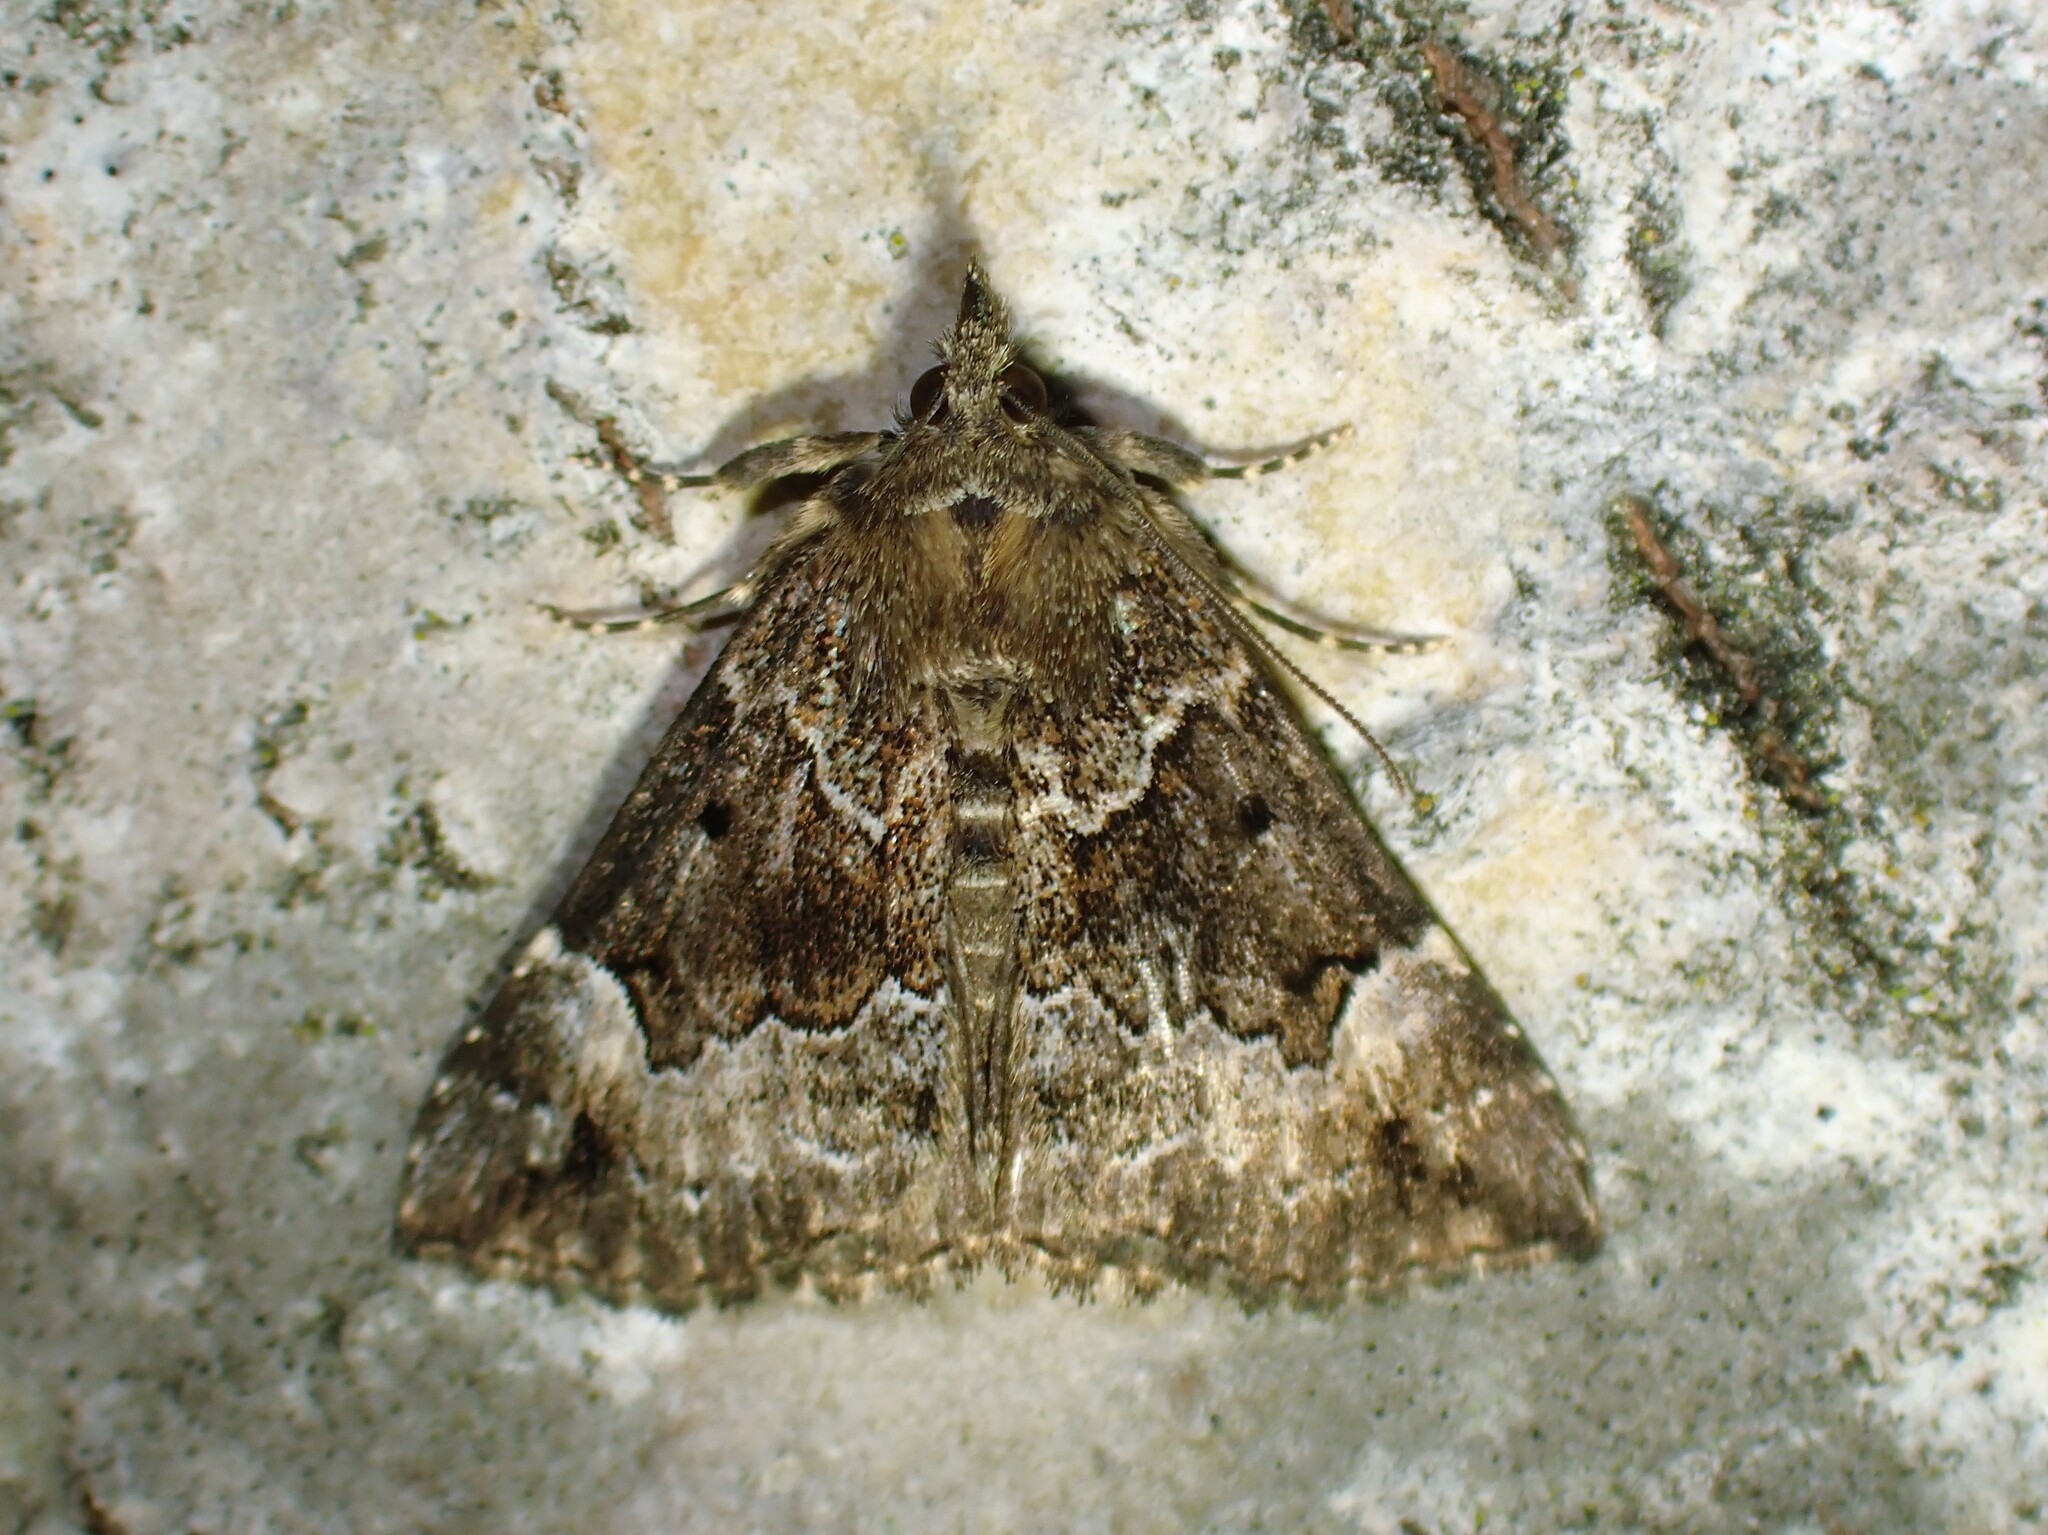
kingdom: Animalia
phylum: Arthropoda
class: Insecta
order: Lepidoptera
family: Erebidae
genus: Hypena
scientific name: Hypena palparia
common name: Mottled bomolocha moth
